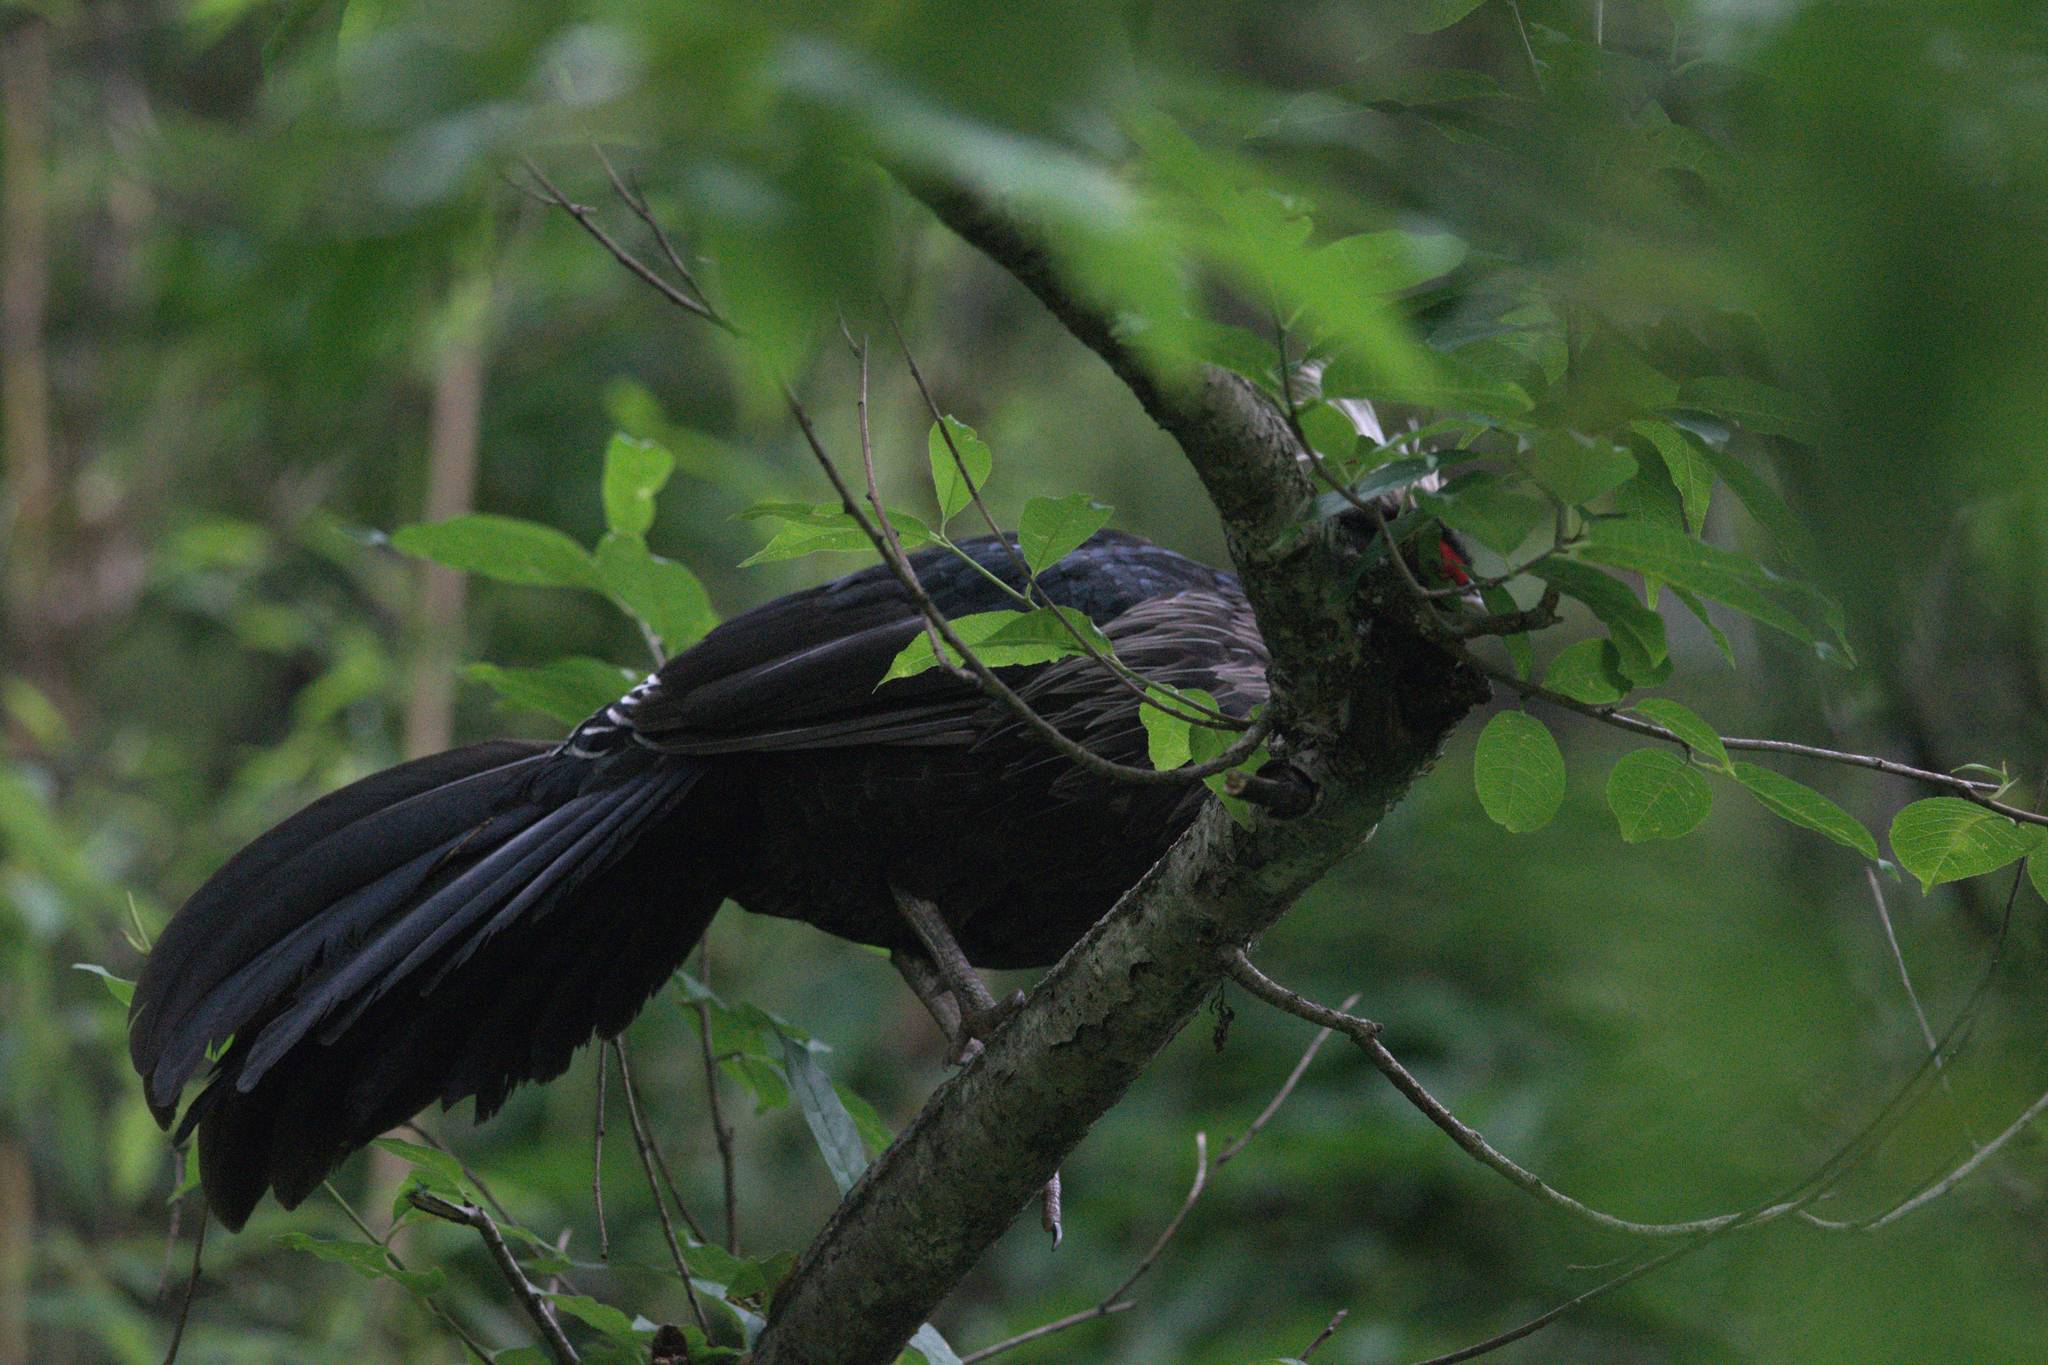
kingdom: Animalia
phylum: Chordata
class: Aves
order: Galliformes
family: Phasianidae
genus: Lophura
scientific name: Lophura leucomelanos
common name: Kalij pheasant
